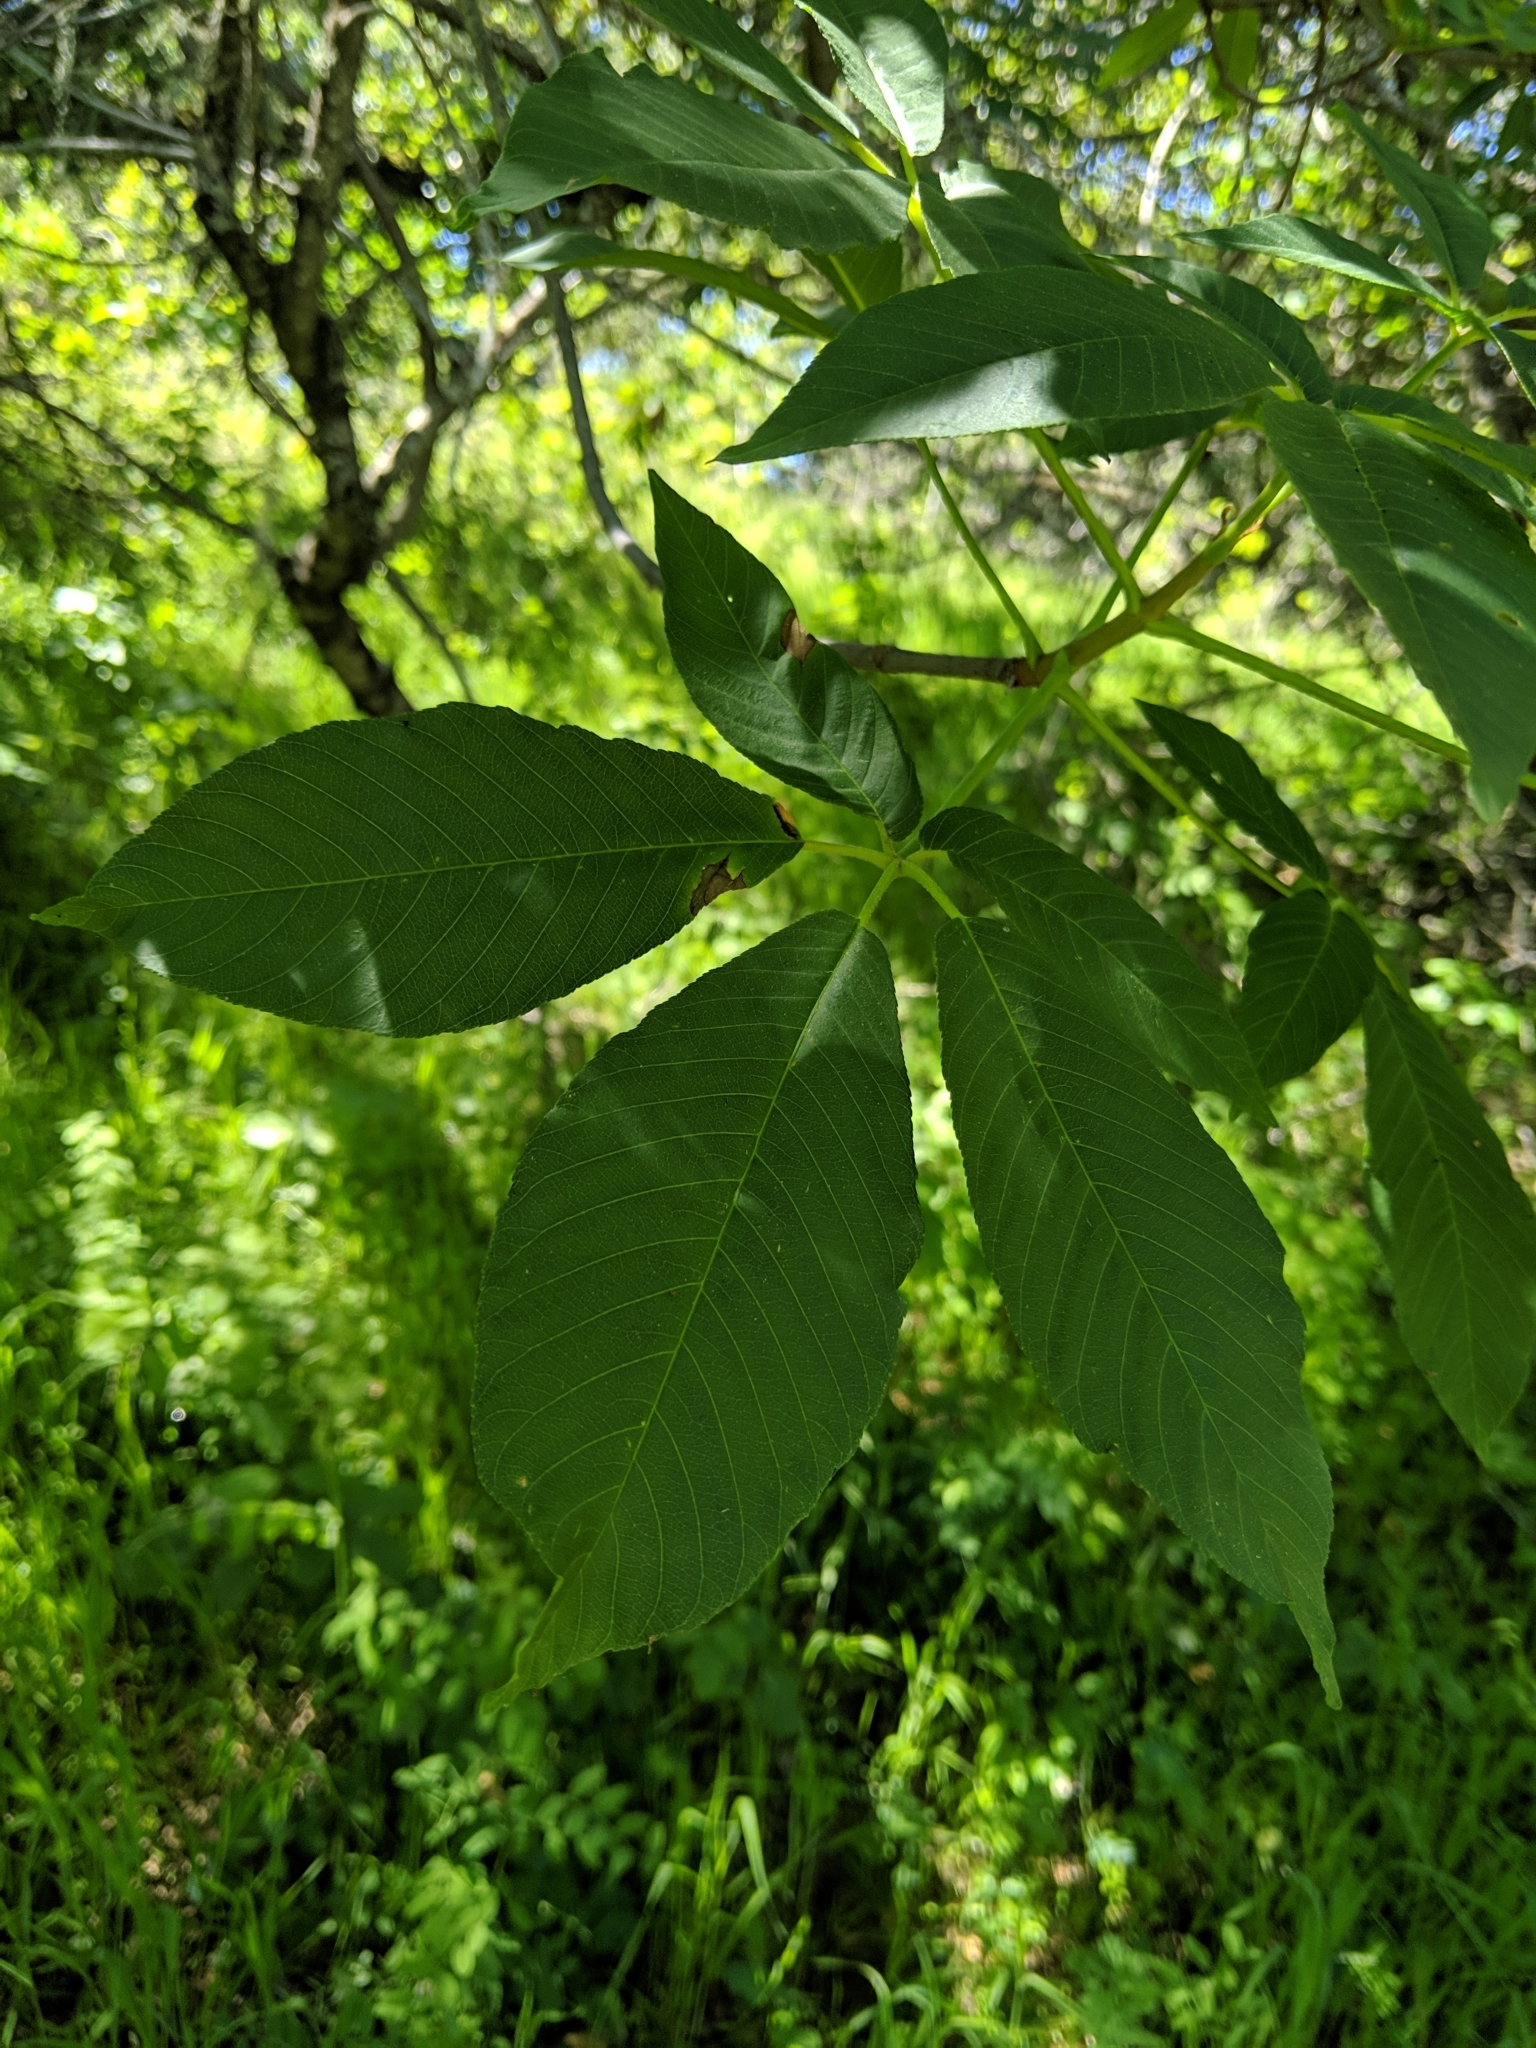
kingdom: Plantae
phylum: Tracheophyta
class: Magnoliopsida
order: Sapindales
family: Sapindaceae
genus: Aesculus
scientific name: Aesculus californica
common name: California buckeye
